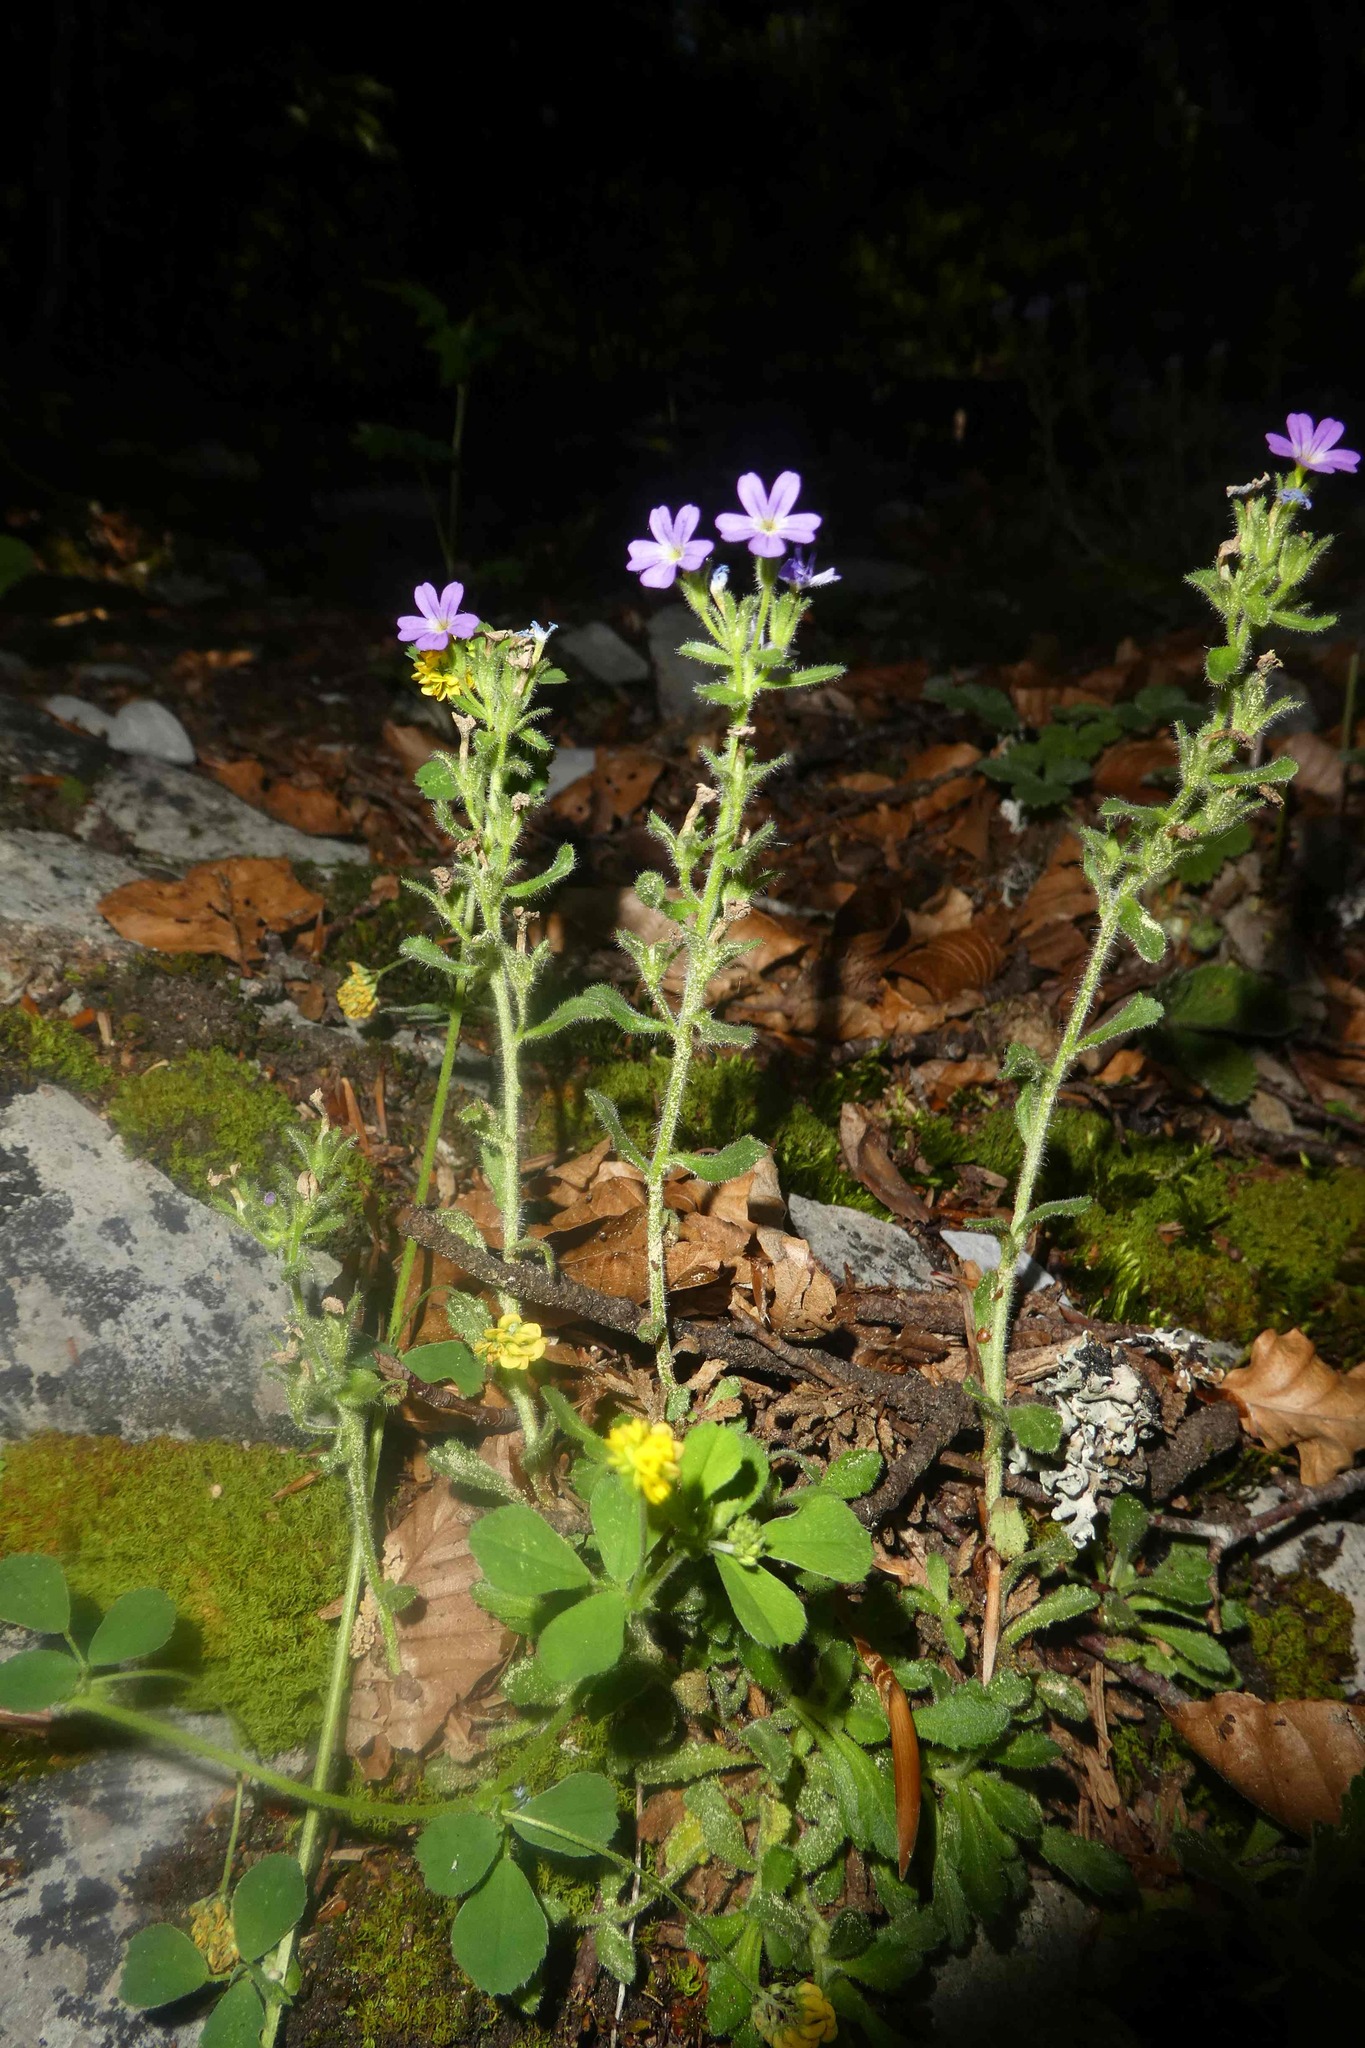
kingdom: Plantae
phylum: Tracheophyta
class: Magnoliopsida
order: Lamiales
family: Plantaginaceae
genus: Erinus
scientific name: Erinus alpinus
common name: Fairy foxglove
